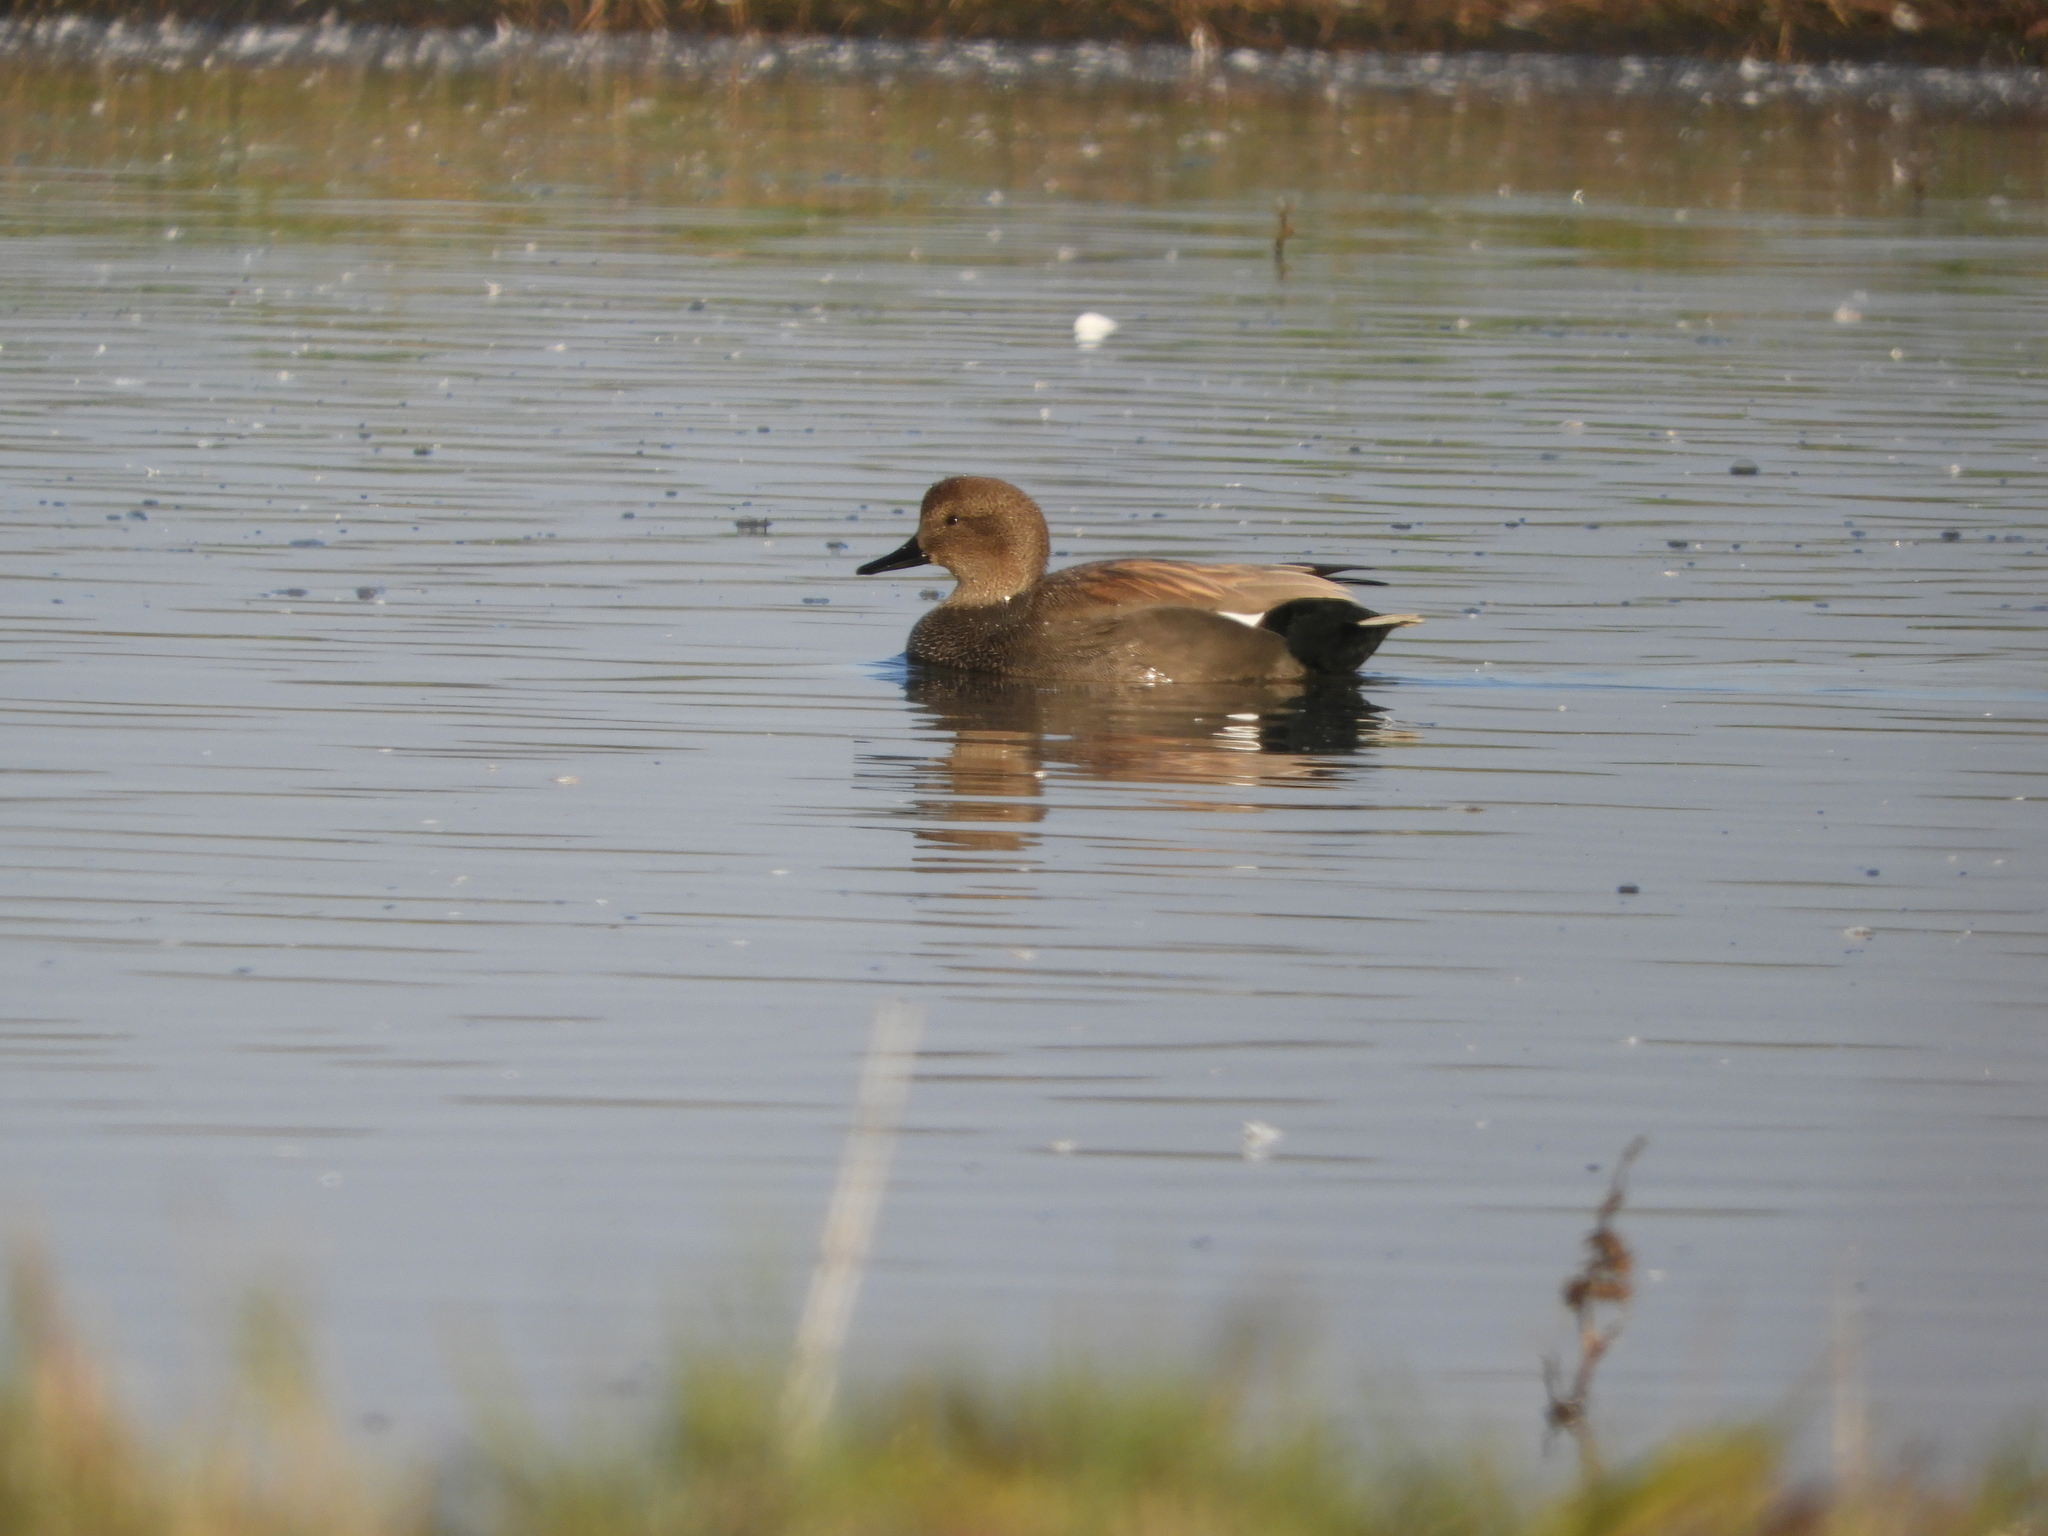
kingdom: Animalia
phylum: Chordata
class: Aves
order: Anseriformes
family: Anatidae
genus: Mareca
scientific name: Mareca strepera
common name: Gadwall
